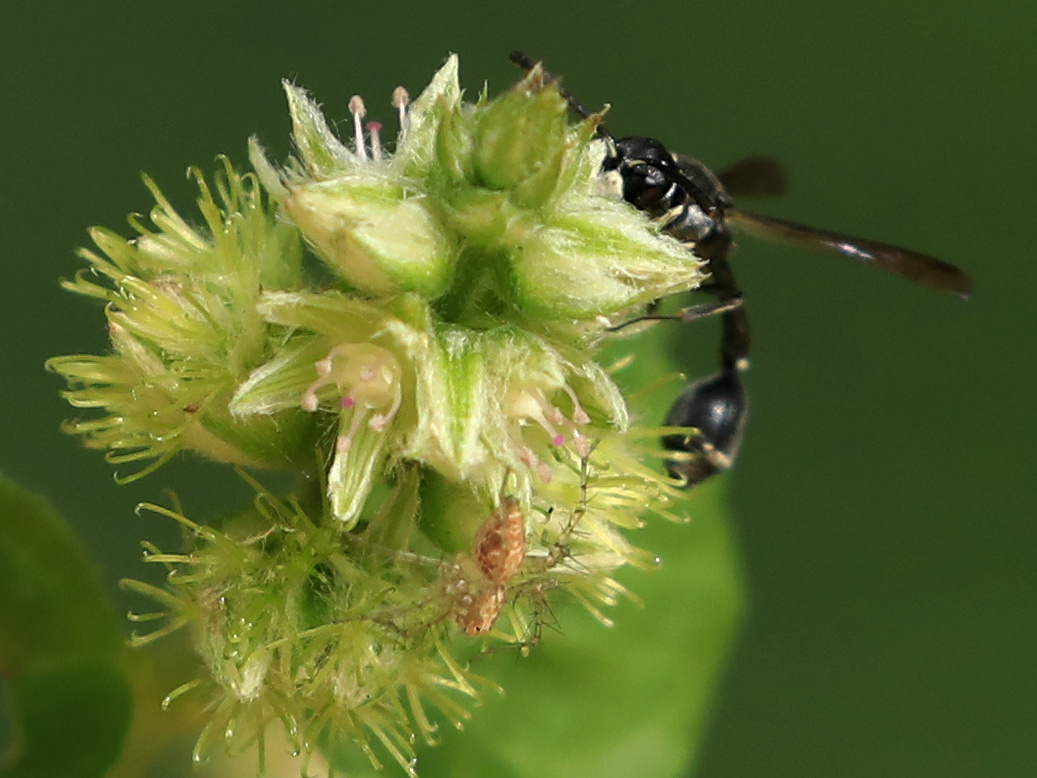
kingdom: Animalia
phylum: Arthropoda
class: Insecta
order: Hymenoptera
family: Eumenidae
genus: Micreumenes
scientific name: Micreumenes
